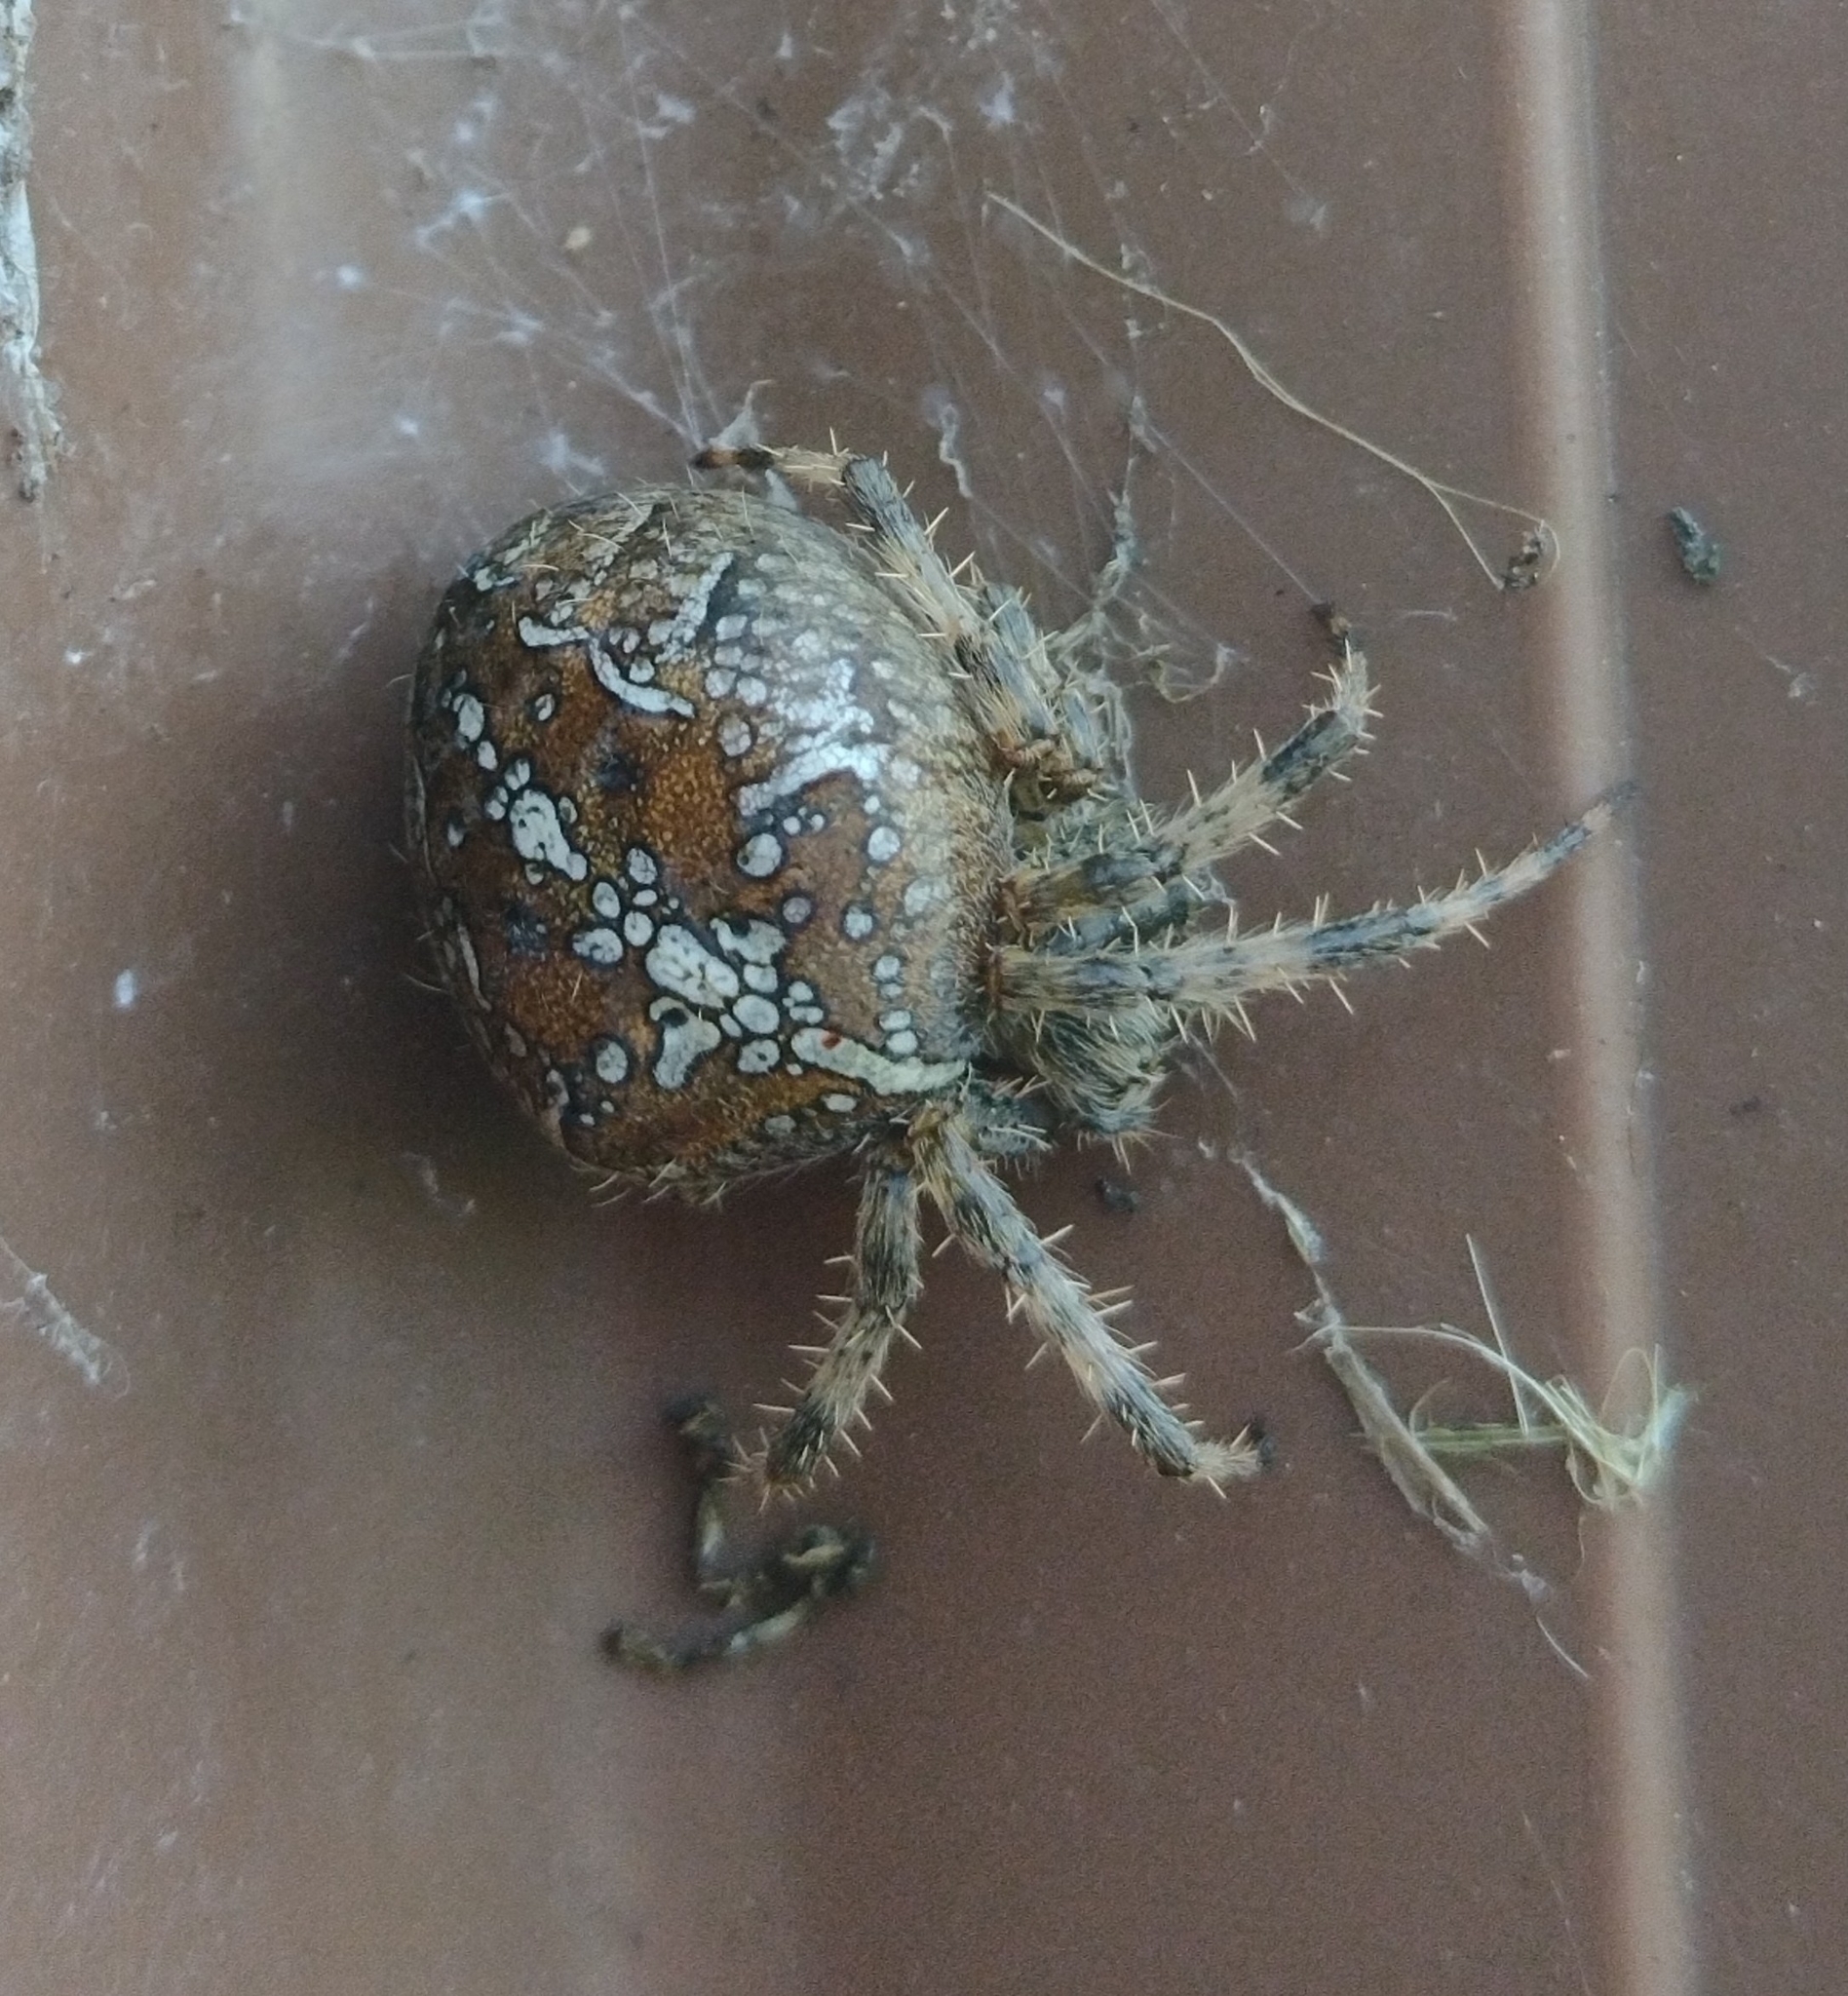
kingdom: Animalia
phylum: Arthropoda
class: Arachnida
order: Araneae
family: Araneidae
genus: Araneus
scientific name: Araneus diadematus
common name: Cross orbweaver
